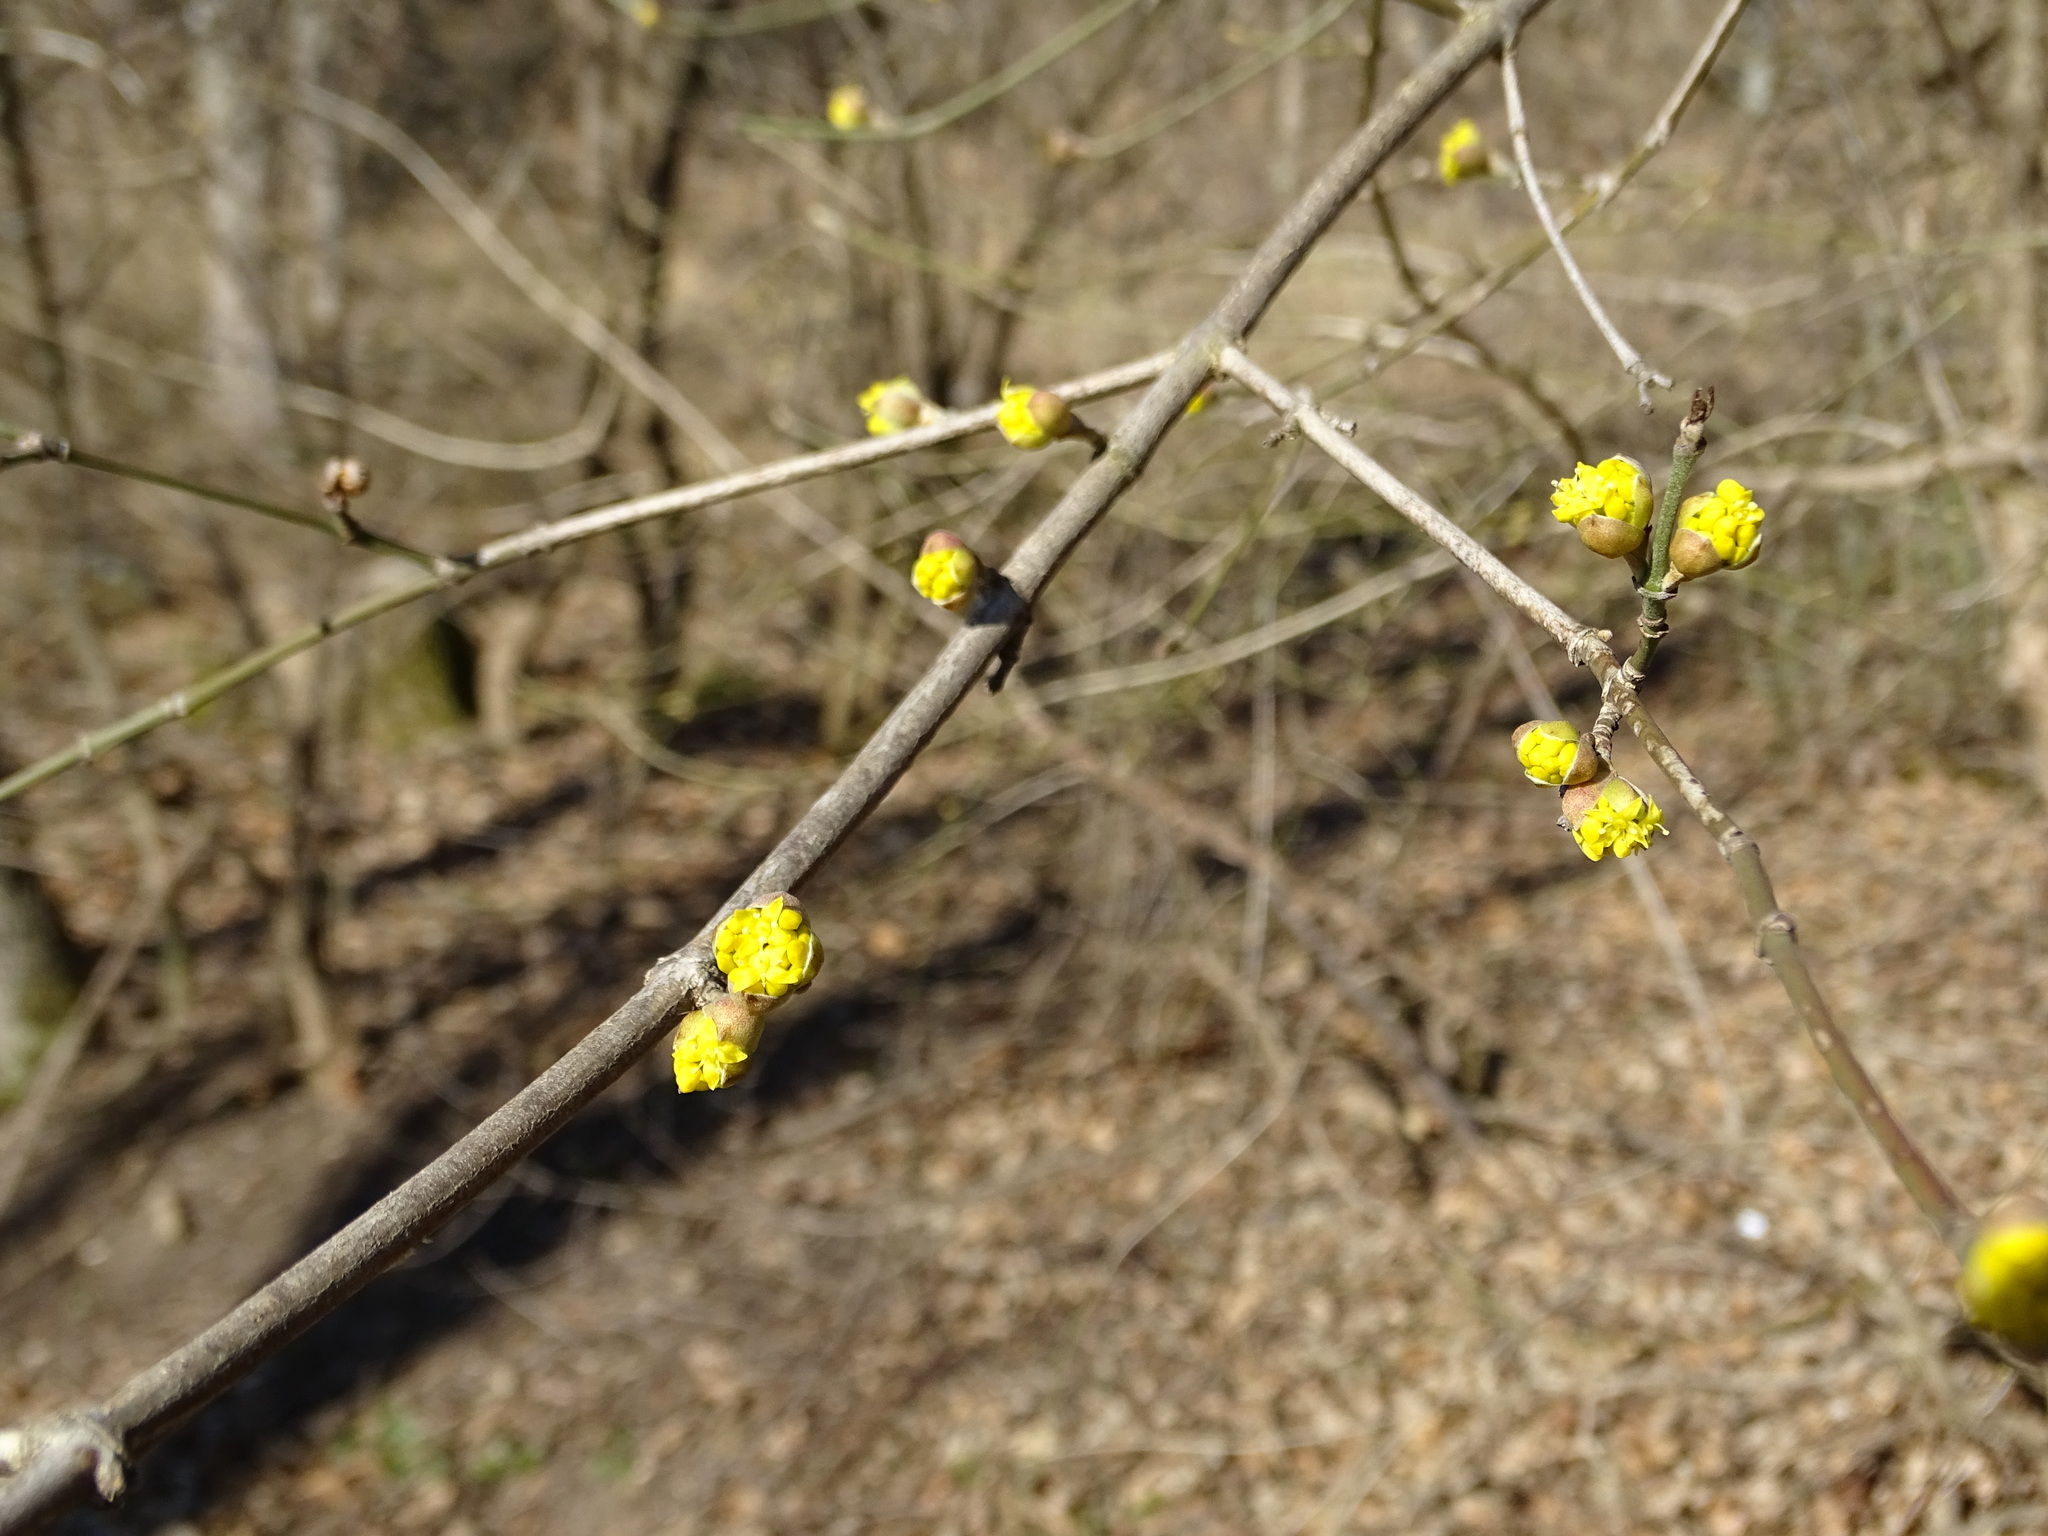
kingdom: Plantae
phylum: Tracheophyta
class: Magnoliopsida
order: Cornales
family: Cornaceae
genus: Cornus
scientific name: Cornus mas
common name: Cornelian-cherry
